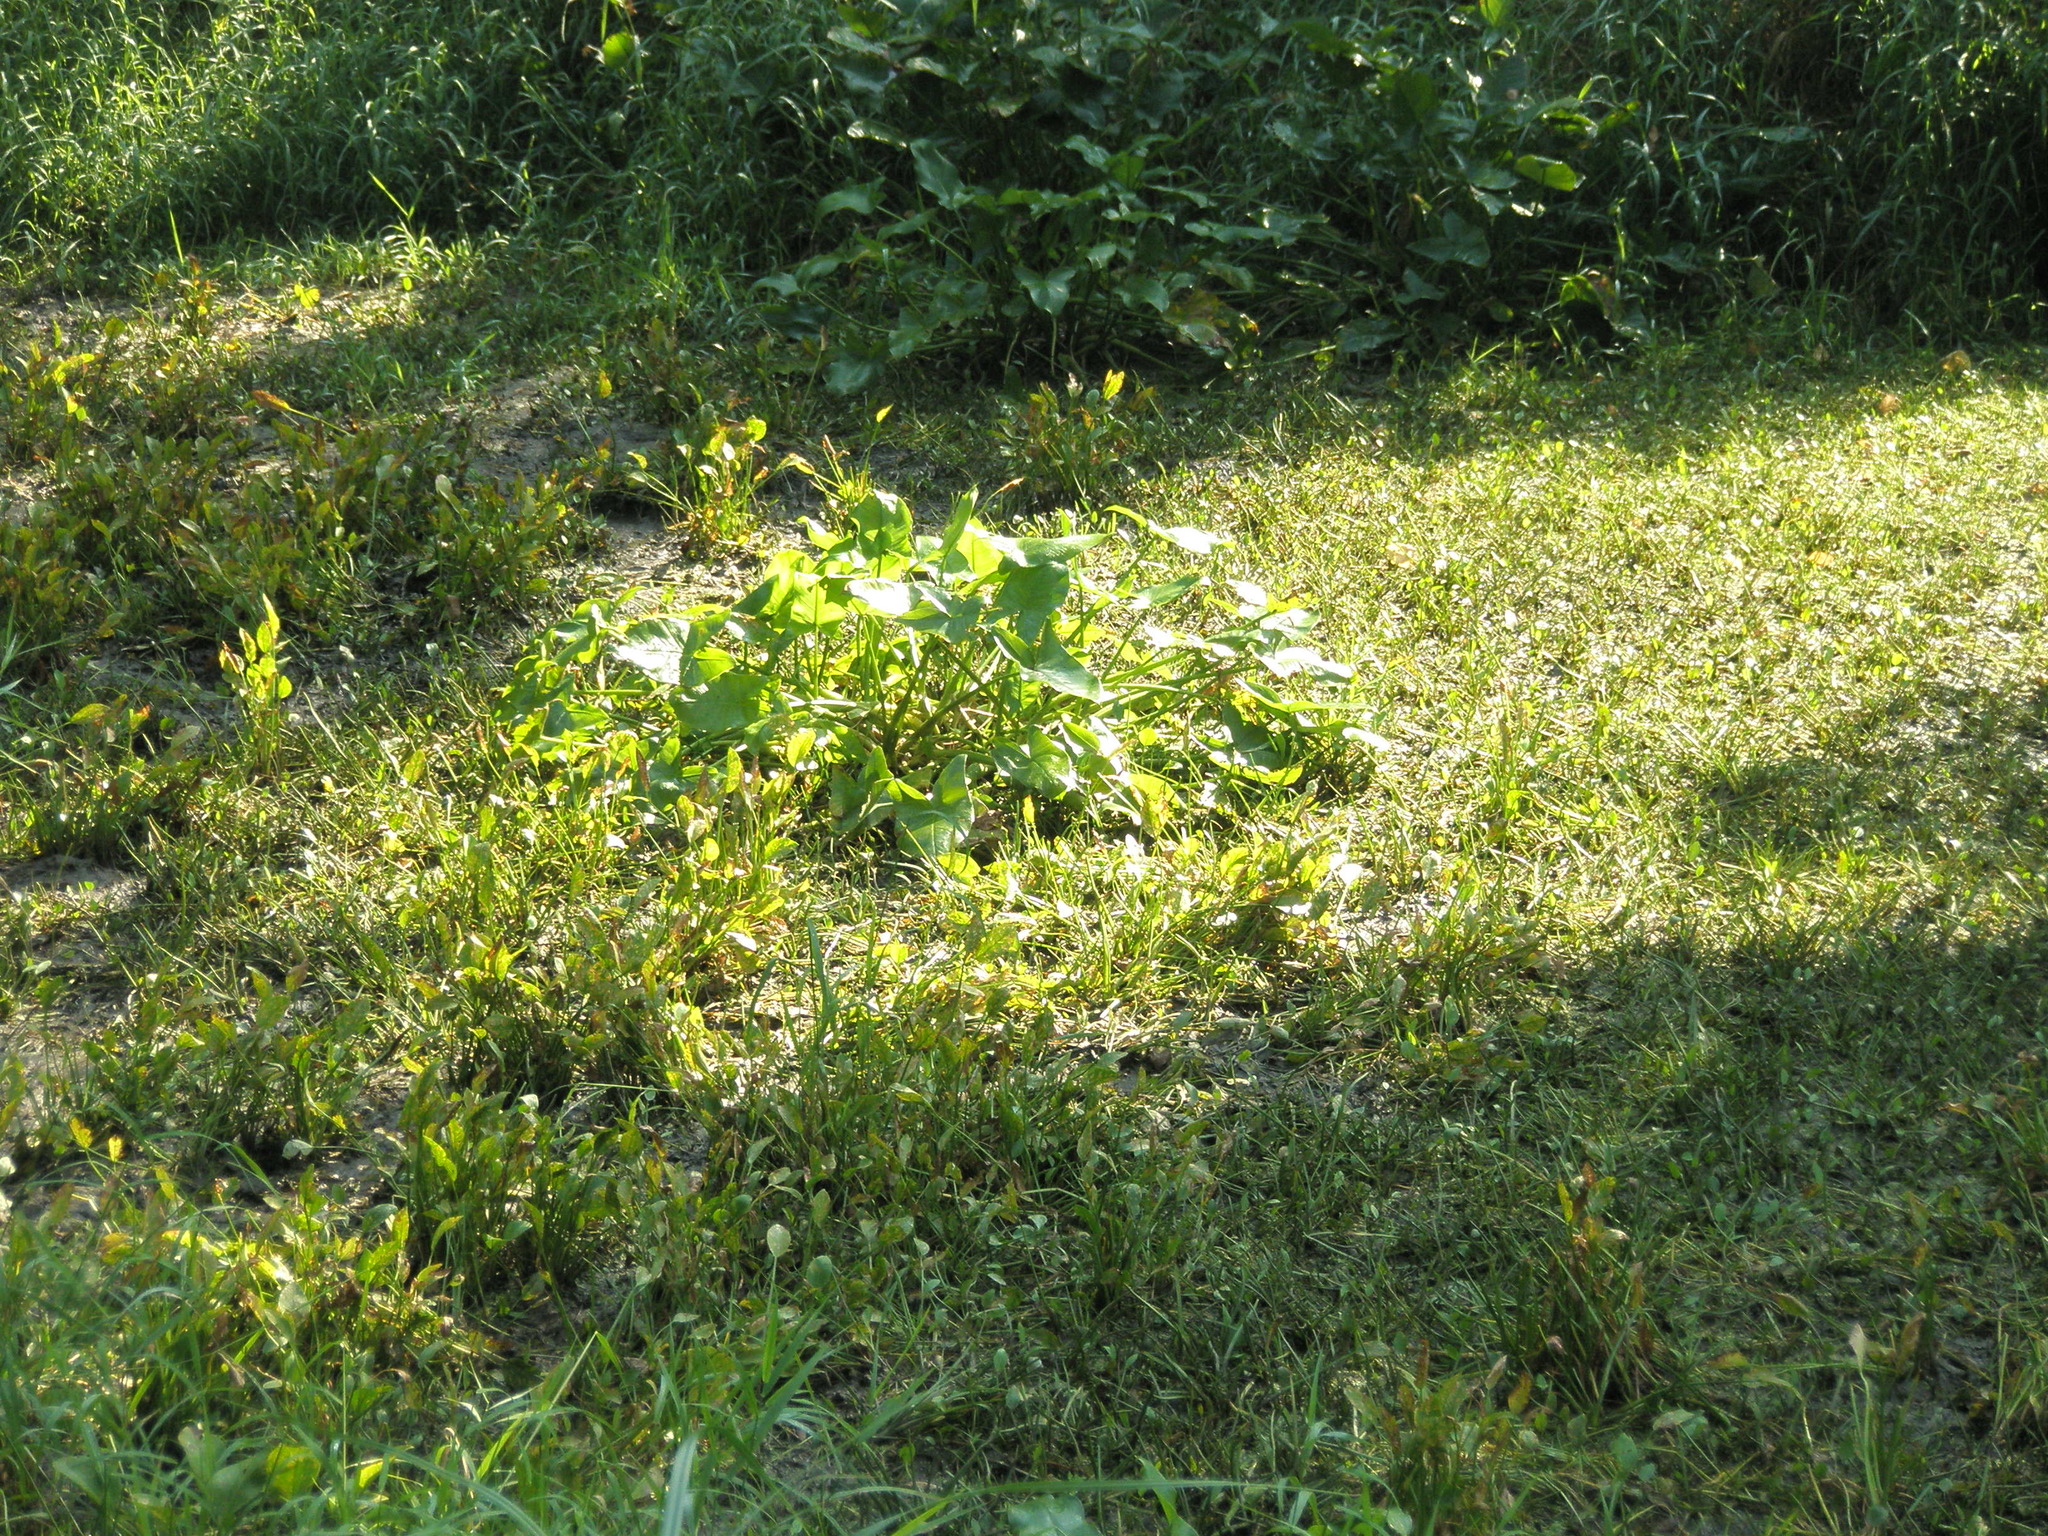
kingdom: Plantae
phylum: Tracheophyta
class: Liliopsida
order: Alismatales
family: Alismataceae
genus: Sagittaria
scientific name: Sagittaria rigida
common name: Canadian arrowhead
